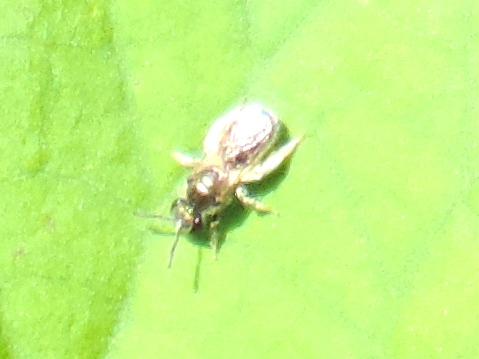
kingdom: Animalia
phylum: Arthropoda
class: Insecta
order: Hymenoptera
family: Halictidae
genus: Dialictus
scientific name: Dialictus
